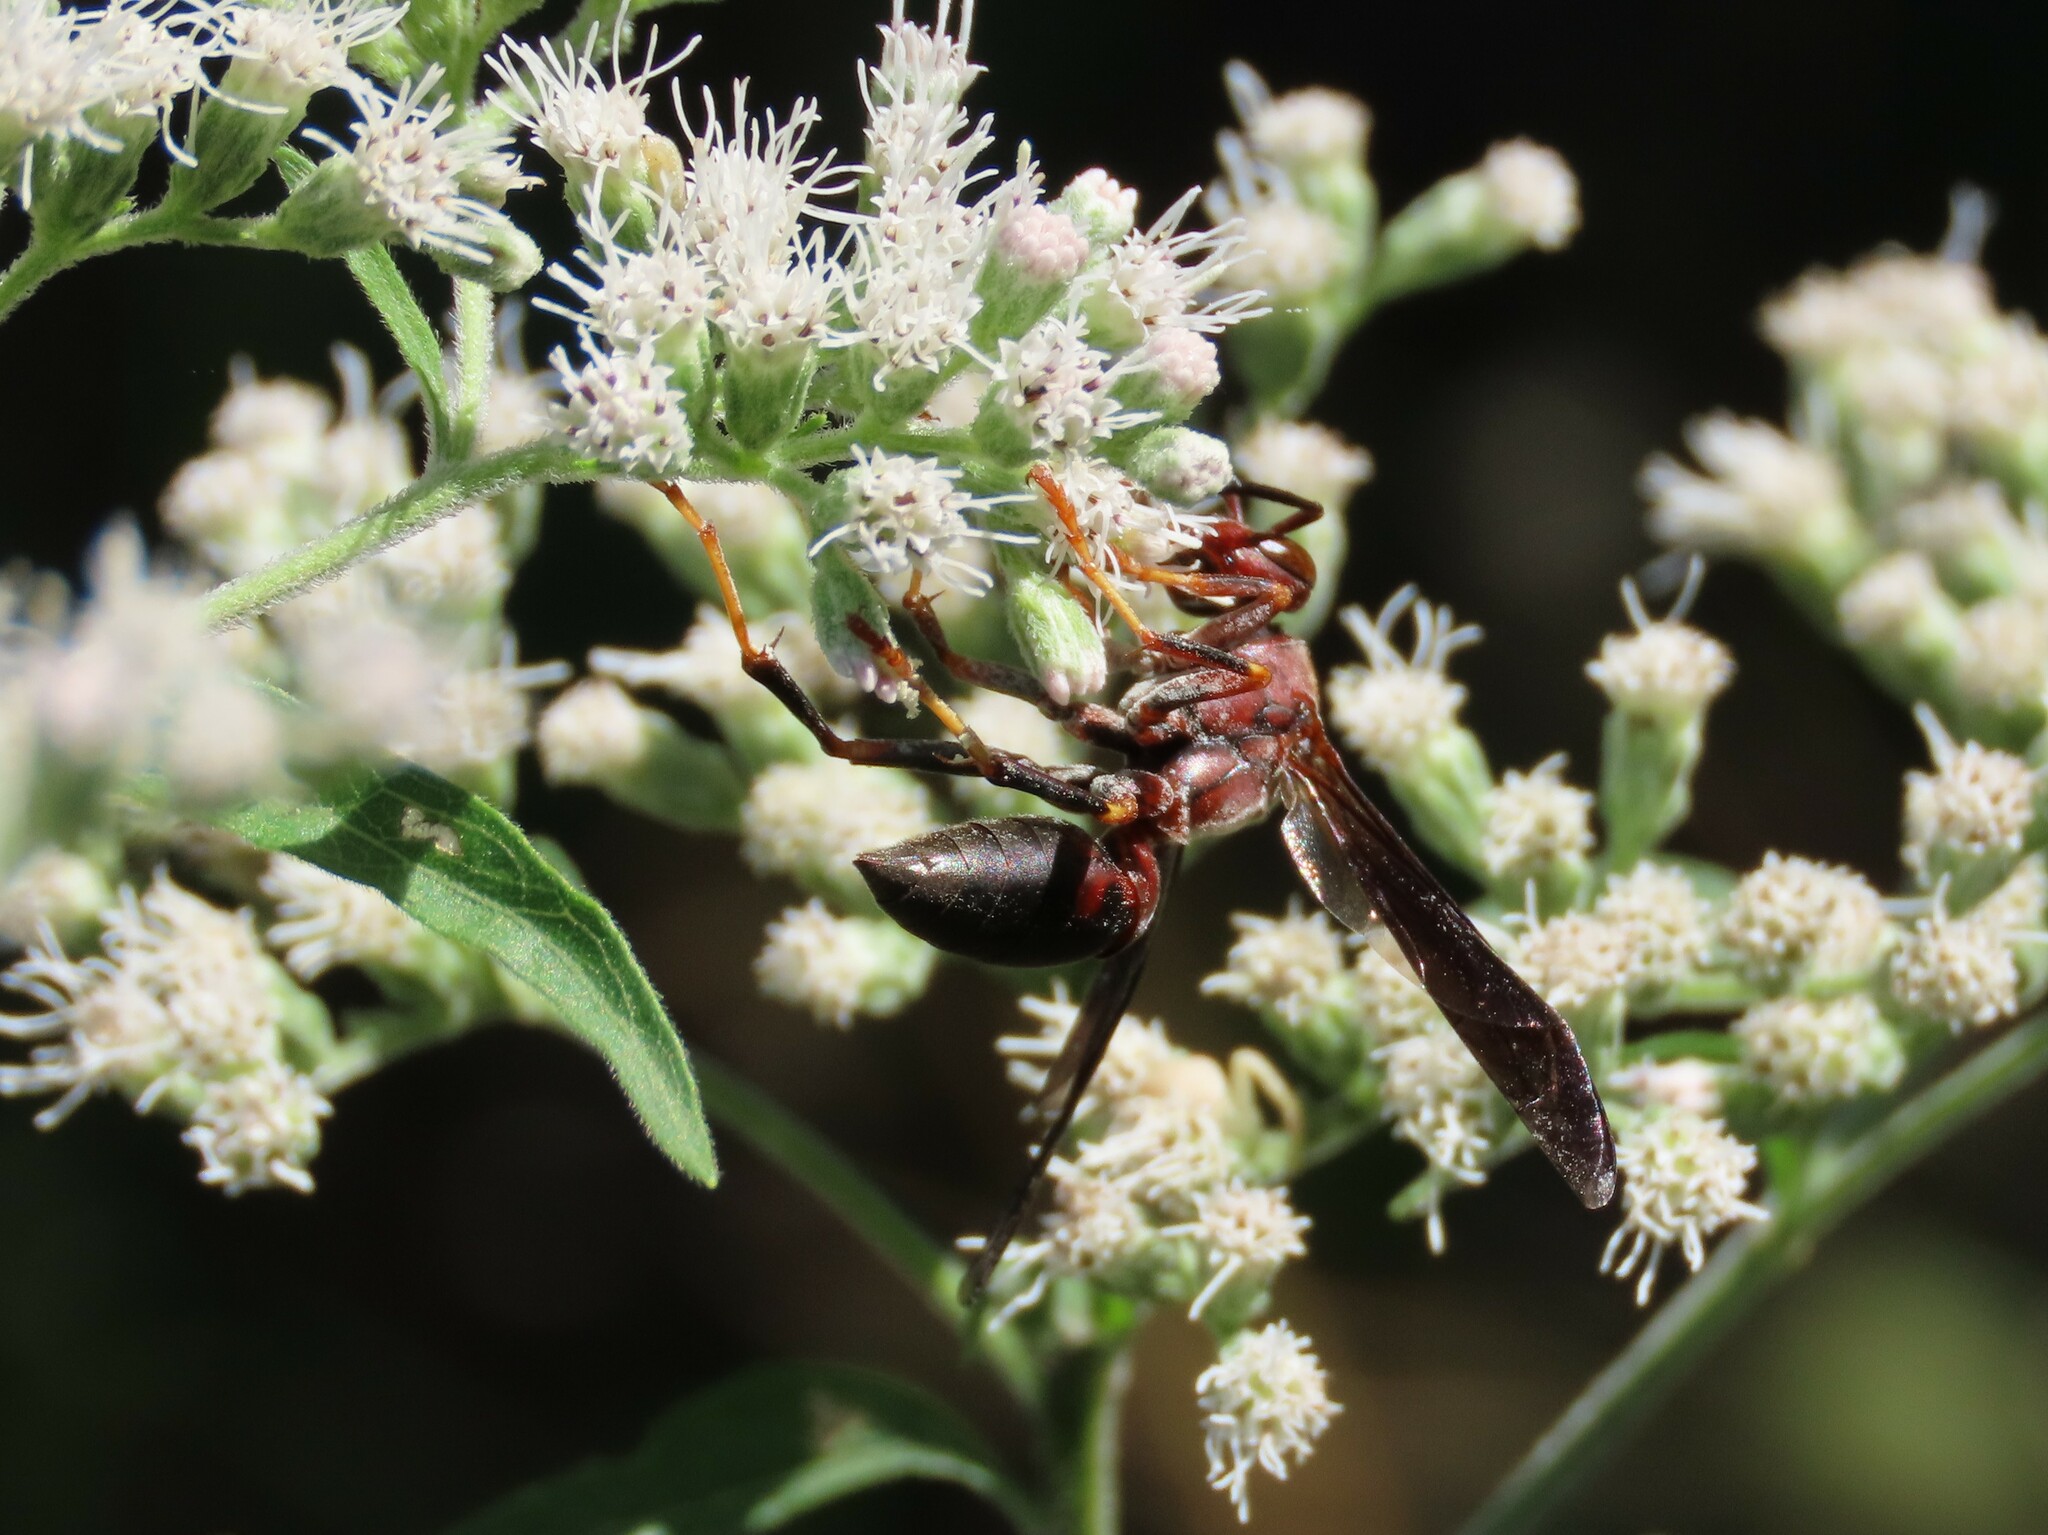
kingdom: Animalia
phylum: Arthropoda
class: Insecta
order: Hymenoptera
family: Eumenidae
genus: Polistes
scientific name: Polistes metricus
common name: Metric paper wasp
